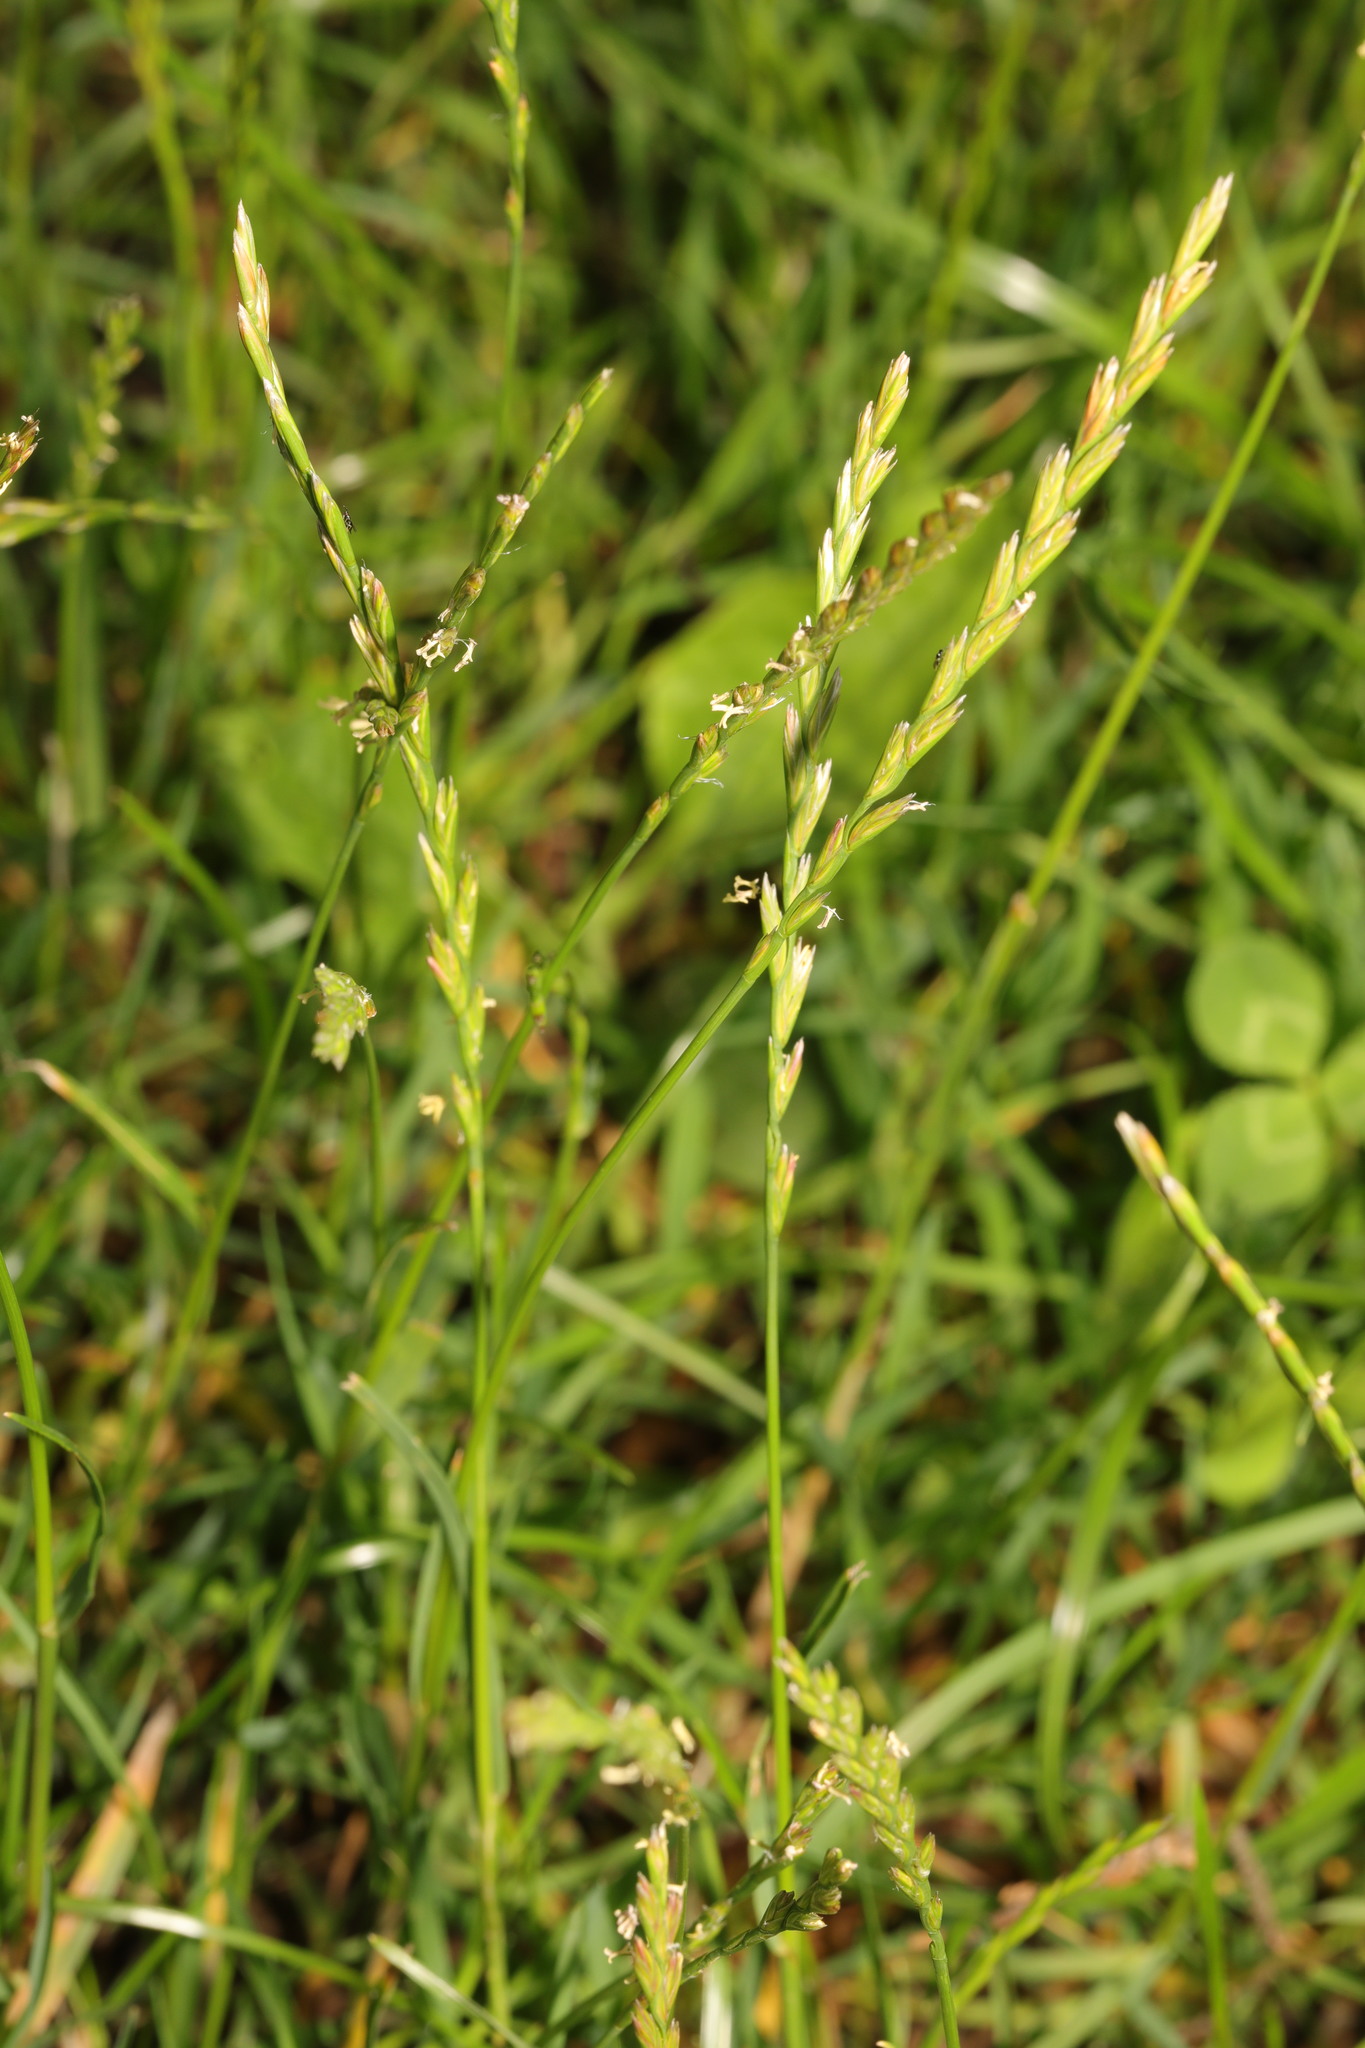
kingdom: Plantae
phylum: Tracheophyta
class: Liliopsida
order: Poales
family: Poaceae
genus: Lolium
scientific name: Lolium perenne
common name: Perennial ryegrass
